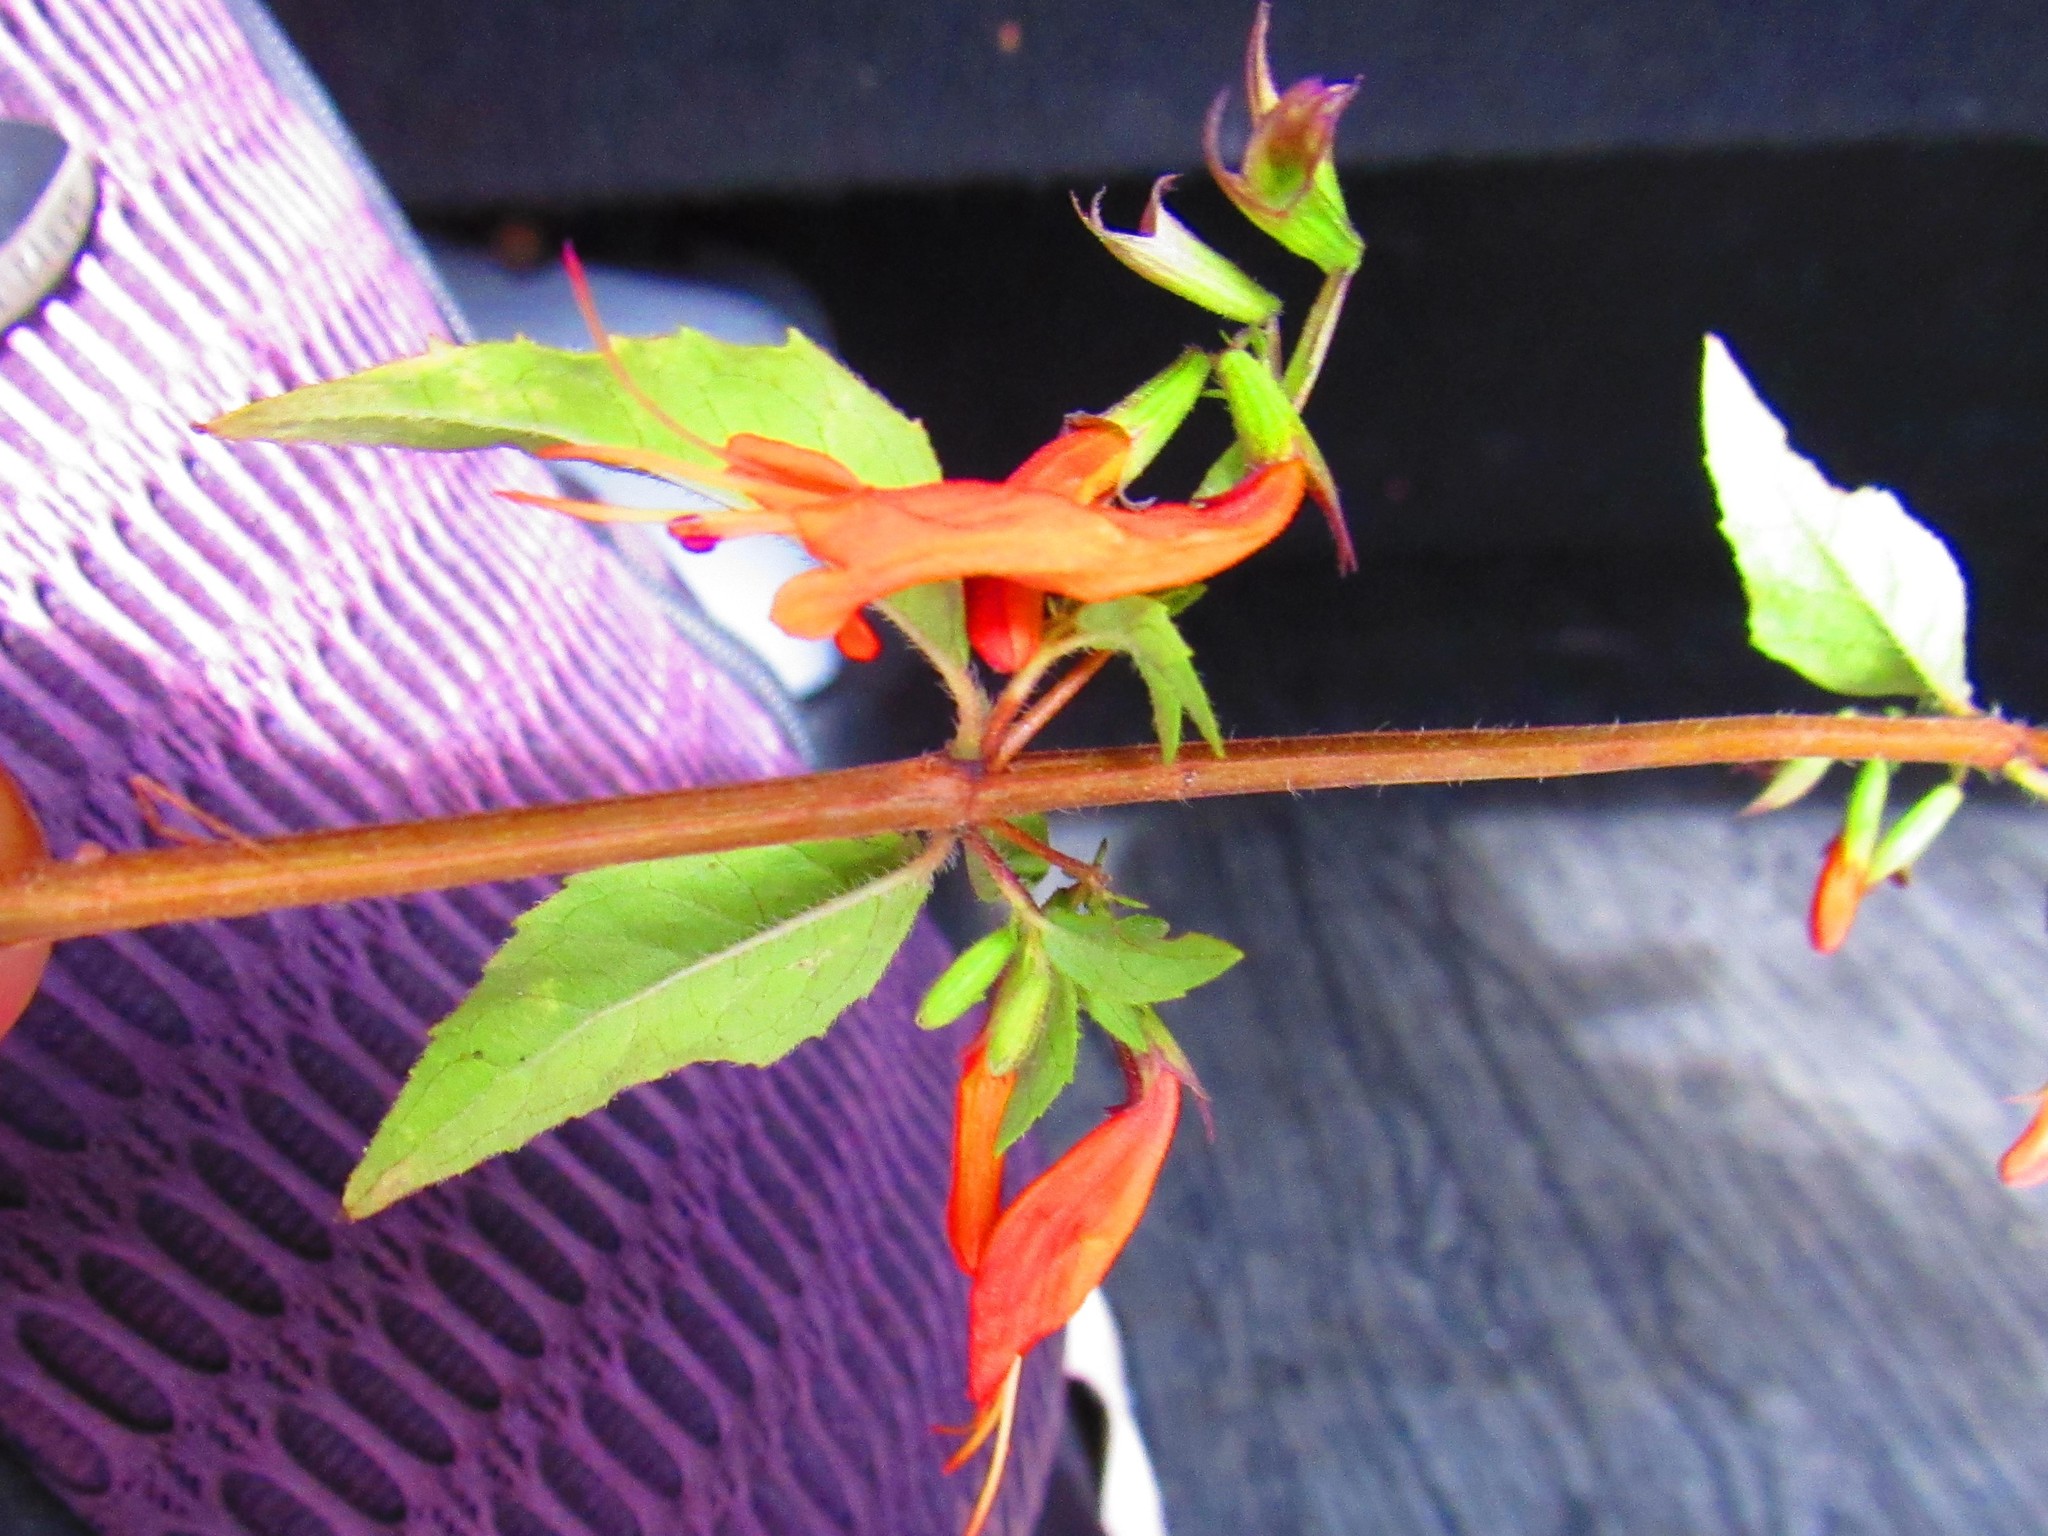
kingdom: Plantae
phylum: Tracheophyta
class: Magnoliopsida
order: Lamiales
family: Lamiaceae
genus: Clinopodium
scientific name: Clinopodium macrostemum
